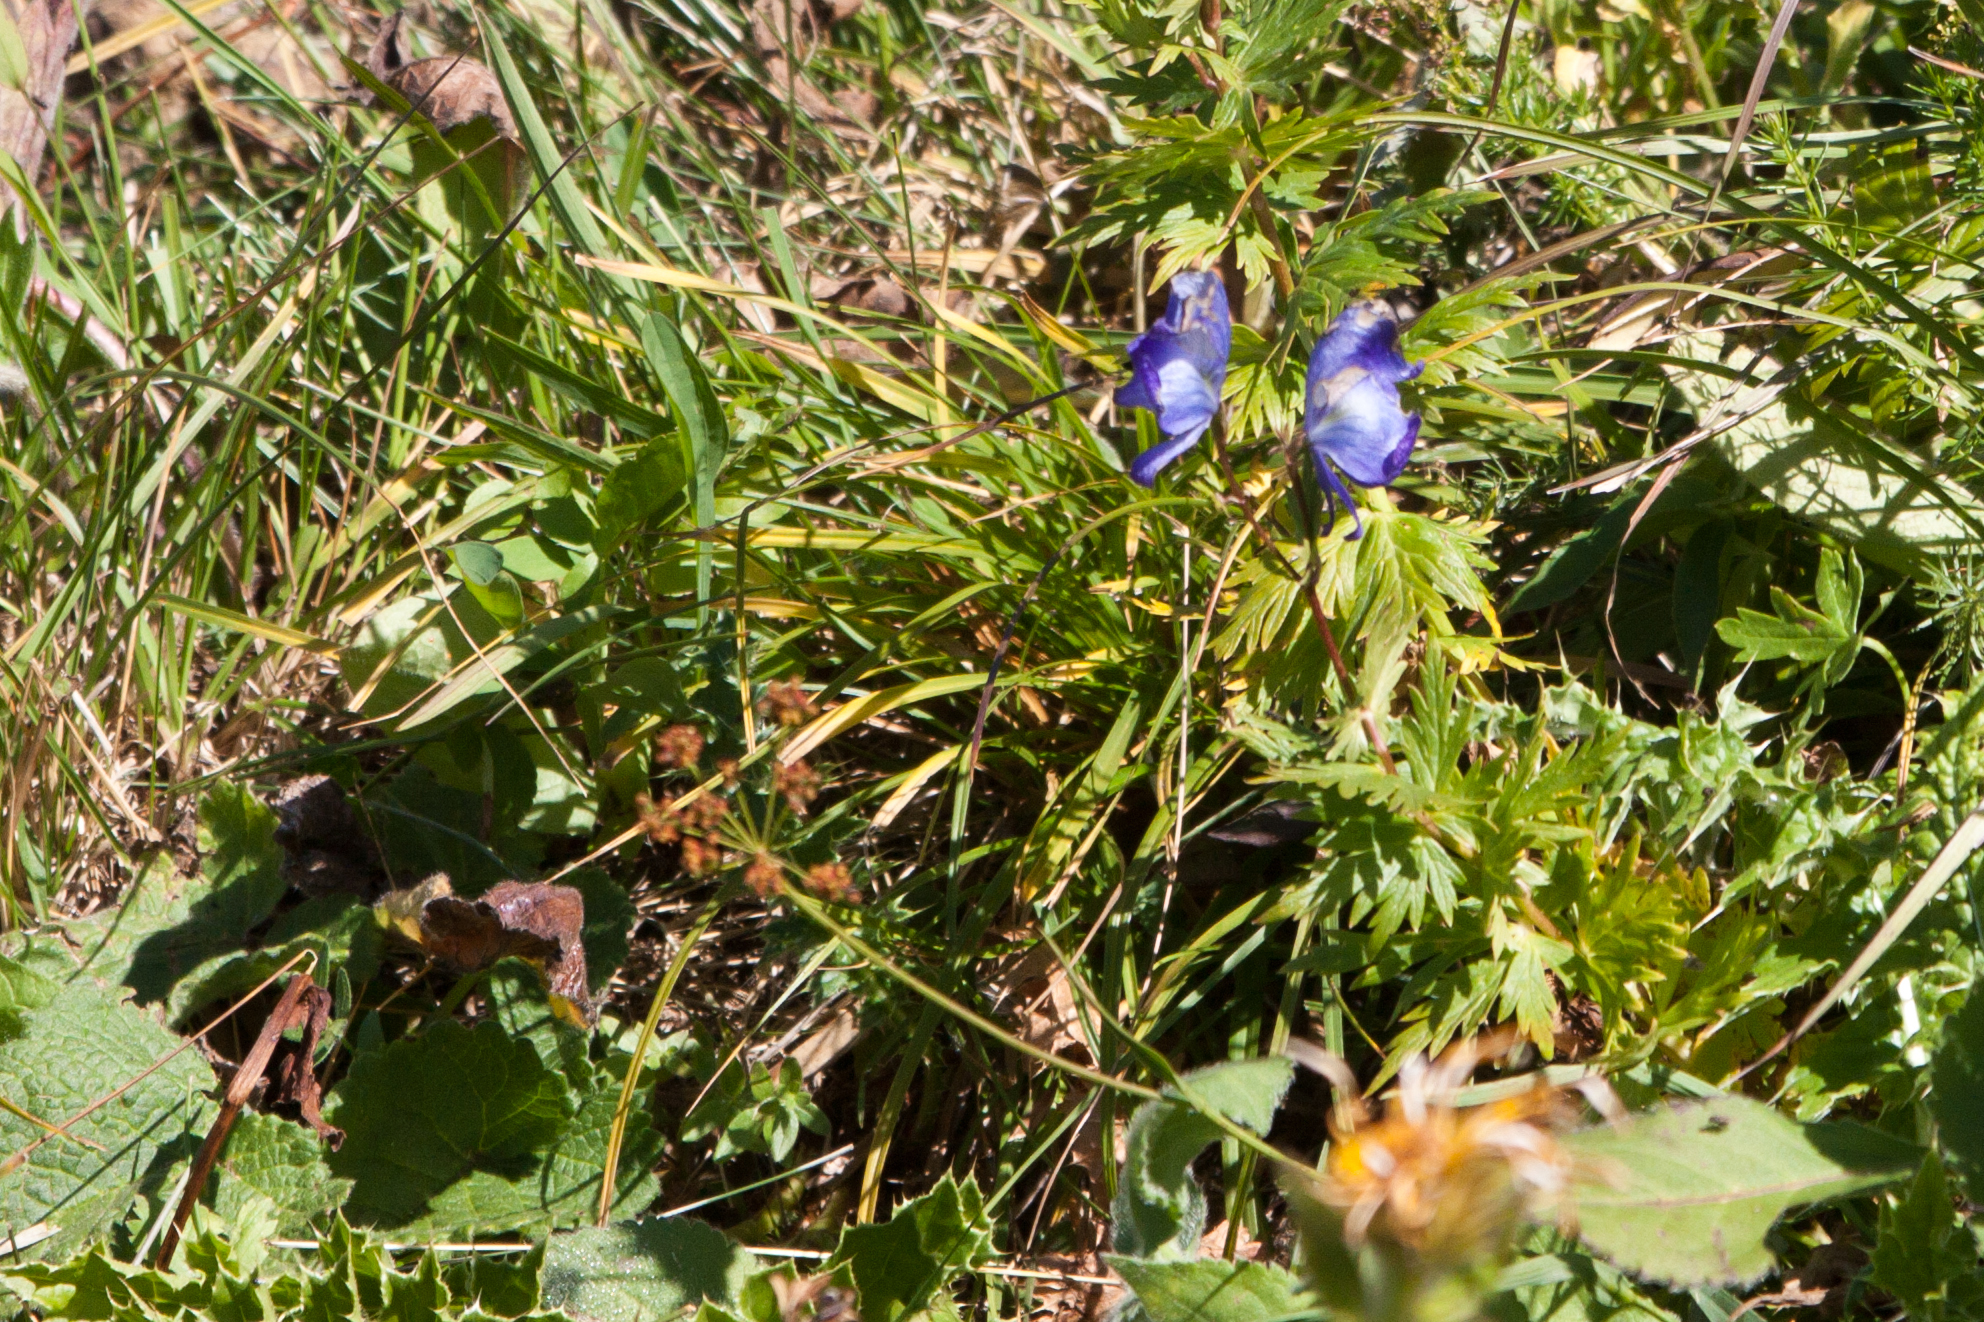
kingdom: Plantae
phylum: Tracheophyta
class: Magnoliopsida
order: Ranunculales
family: Ranunculaceae
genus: Aconitum
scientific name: Aconitum
